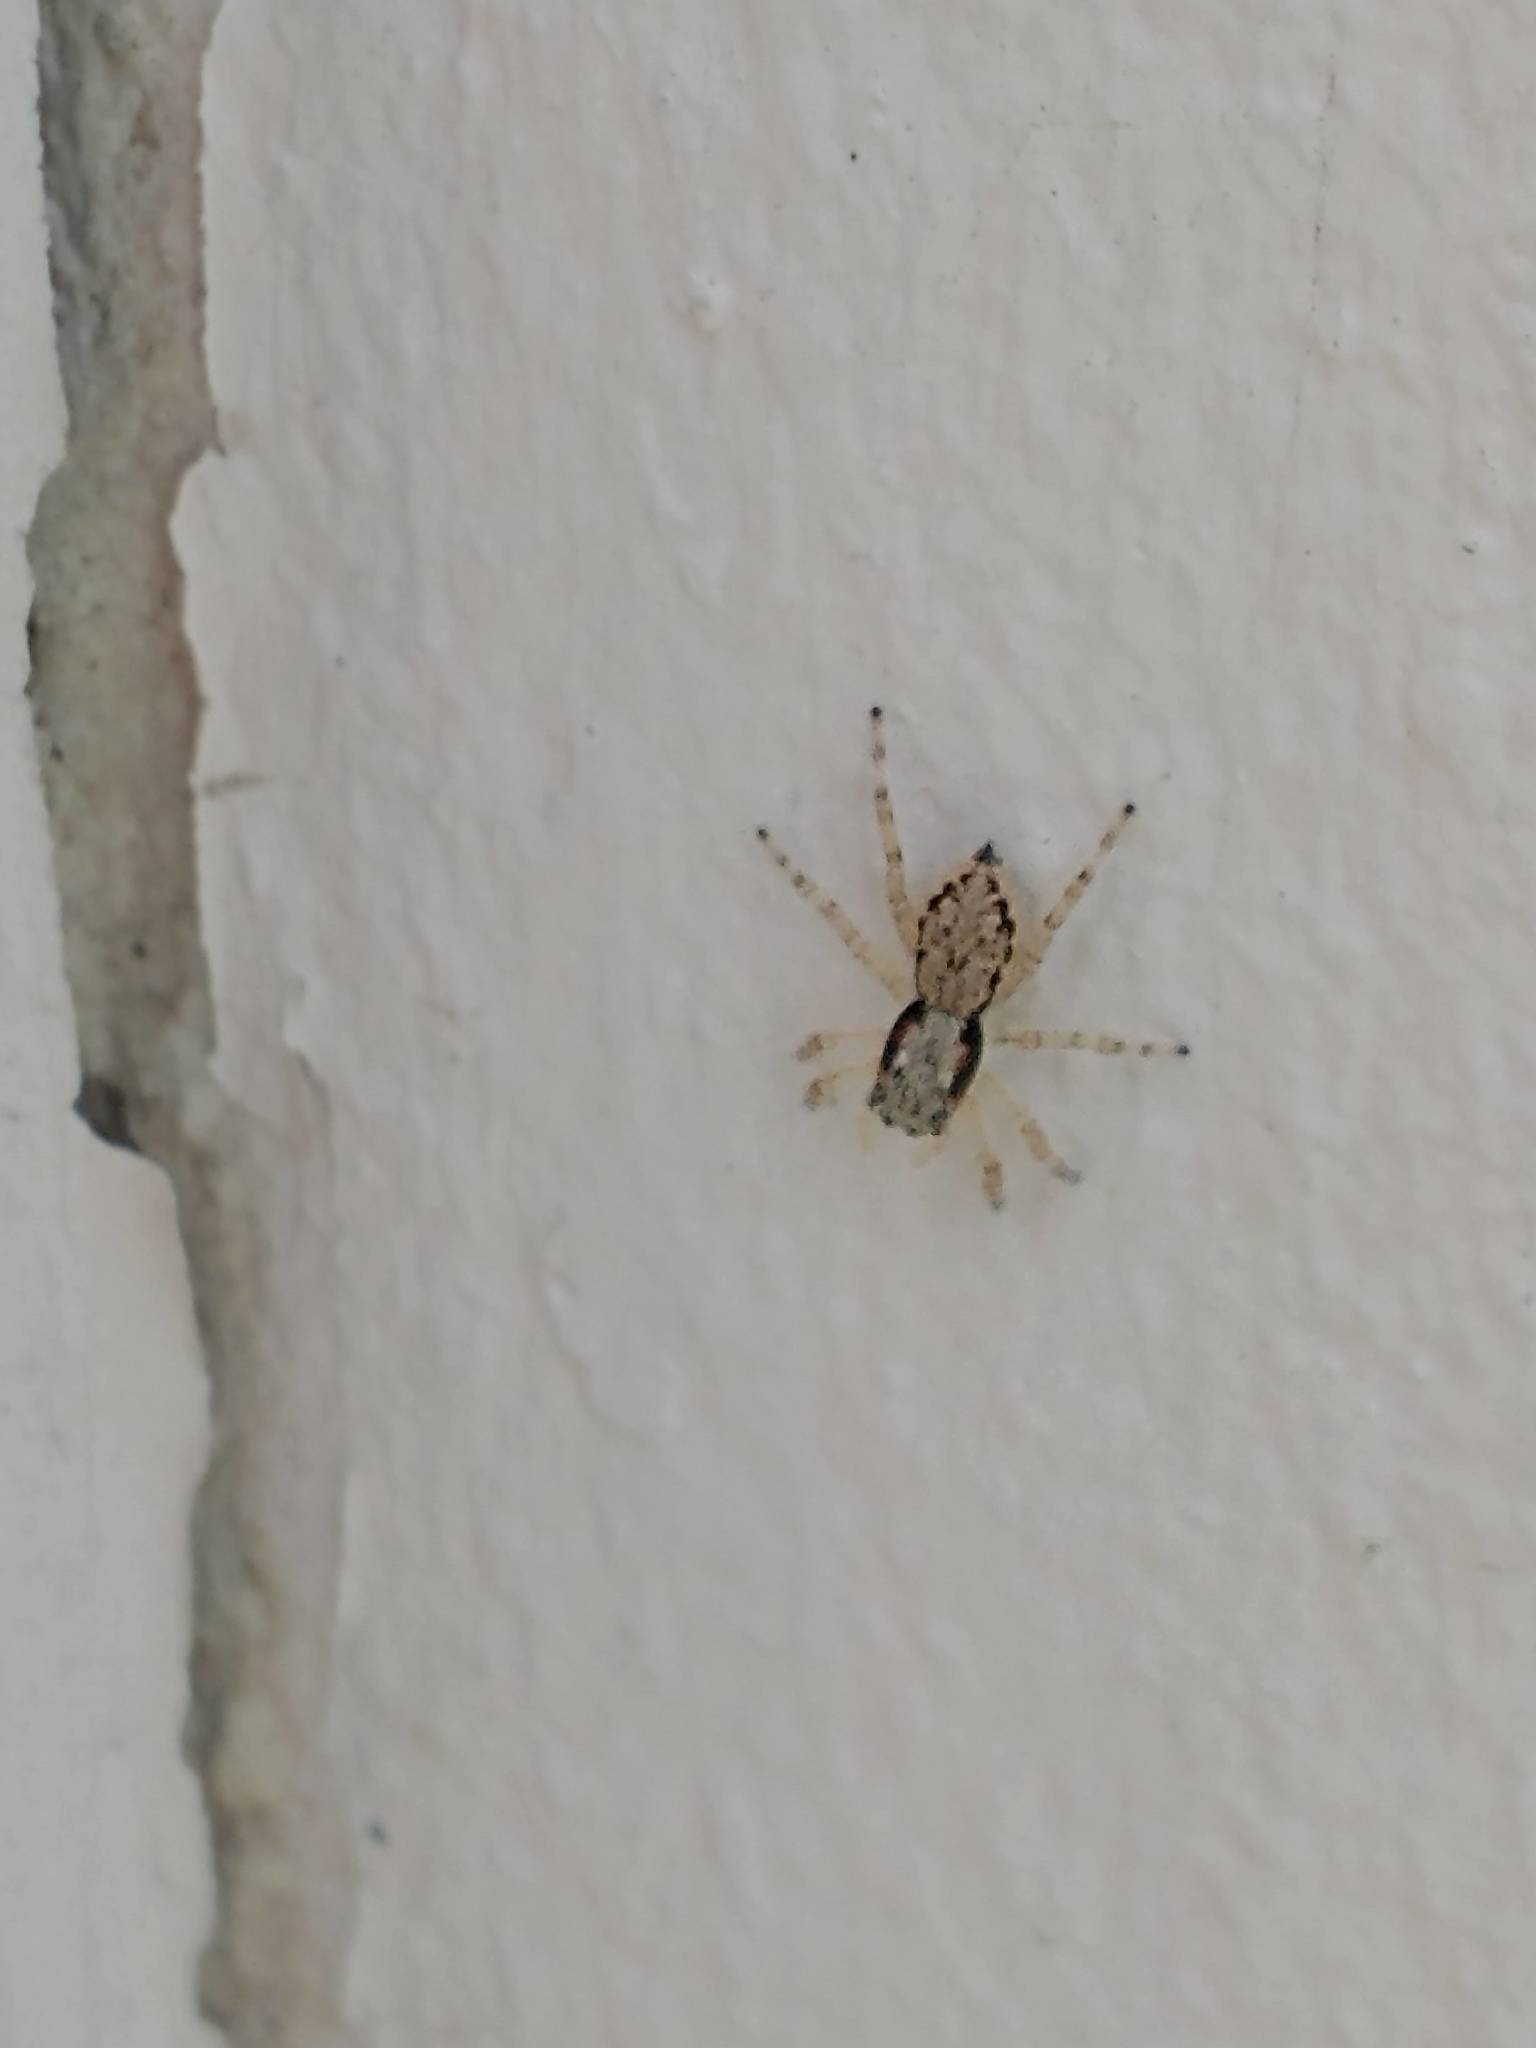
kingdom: Animalia
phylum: Arthropoda
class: Arachnida
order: Araneae
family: Salticidae
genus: Menemerus
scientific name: Menemerus bivittatus
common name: Gray wall jumper
